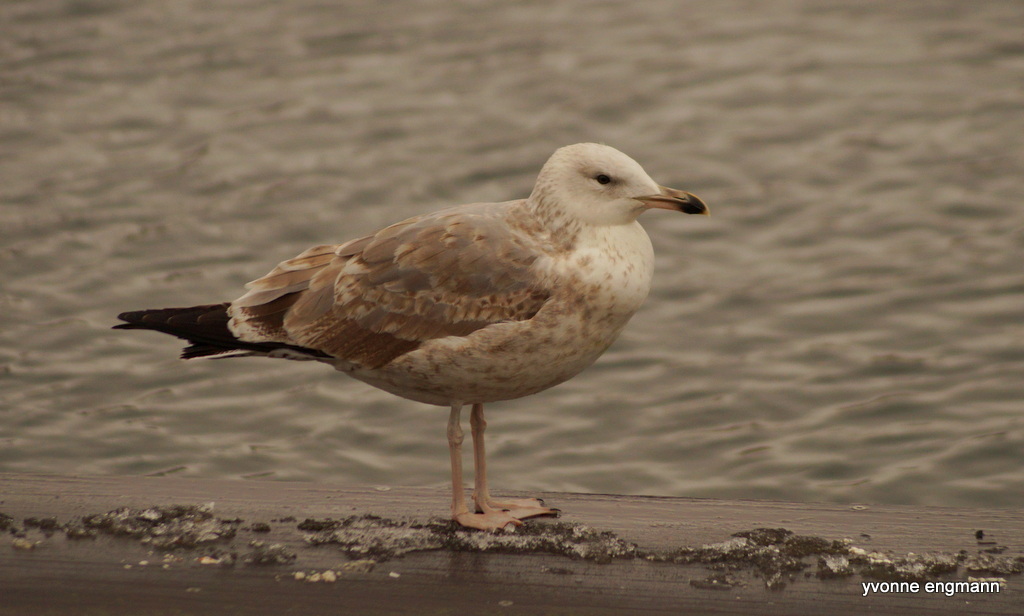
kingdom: Animalia
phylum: Chordata
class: Aves
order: Charadriiformes
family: Laridae
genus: Larus
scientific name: Larus cachinnans
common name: Caspian gull
